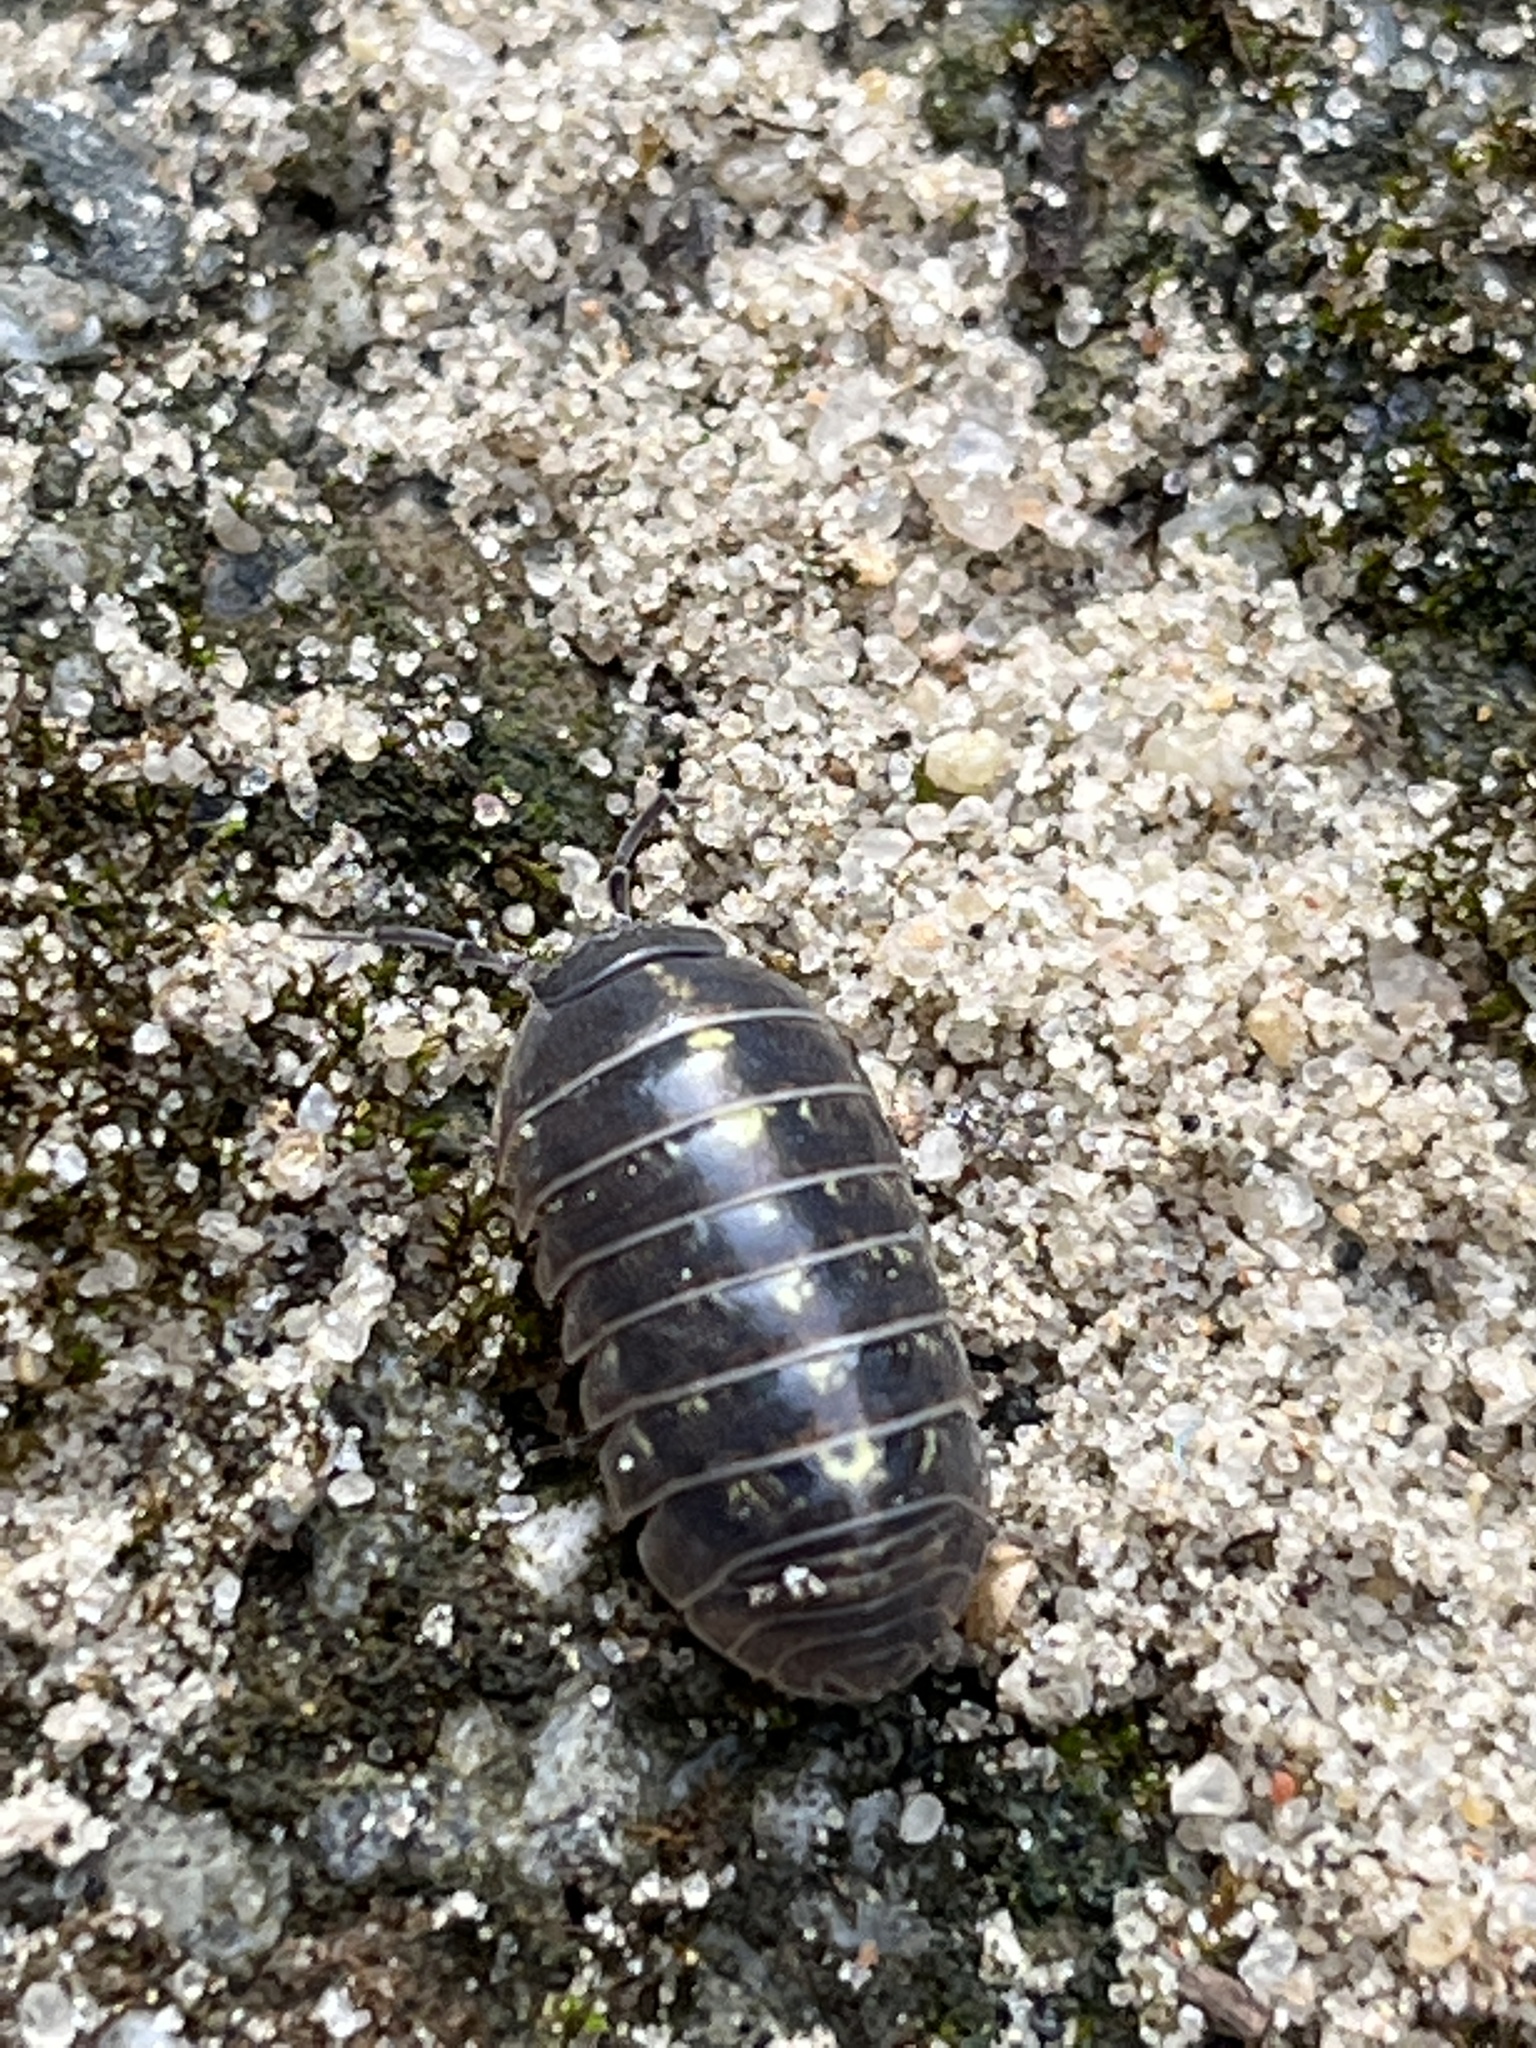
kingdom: Animalia
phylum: Arthropoda
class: Malacostraca
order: Isopoda
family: Armadillidiidae
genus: Armadillidium
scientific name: Armadillidium vulgare
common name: Common pill woodlouse
